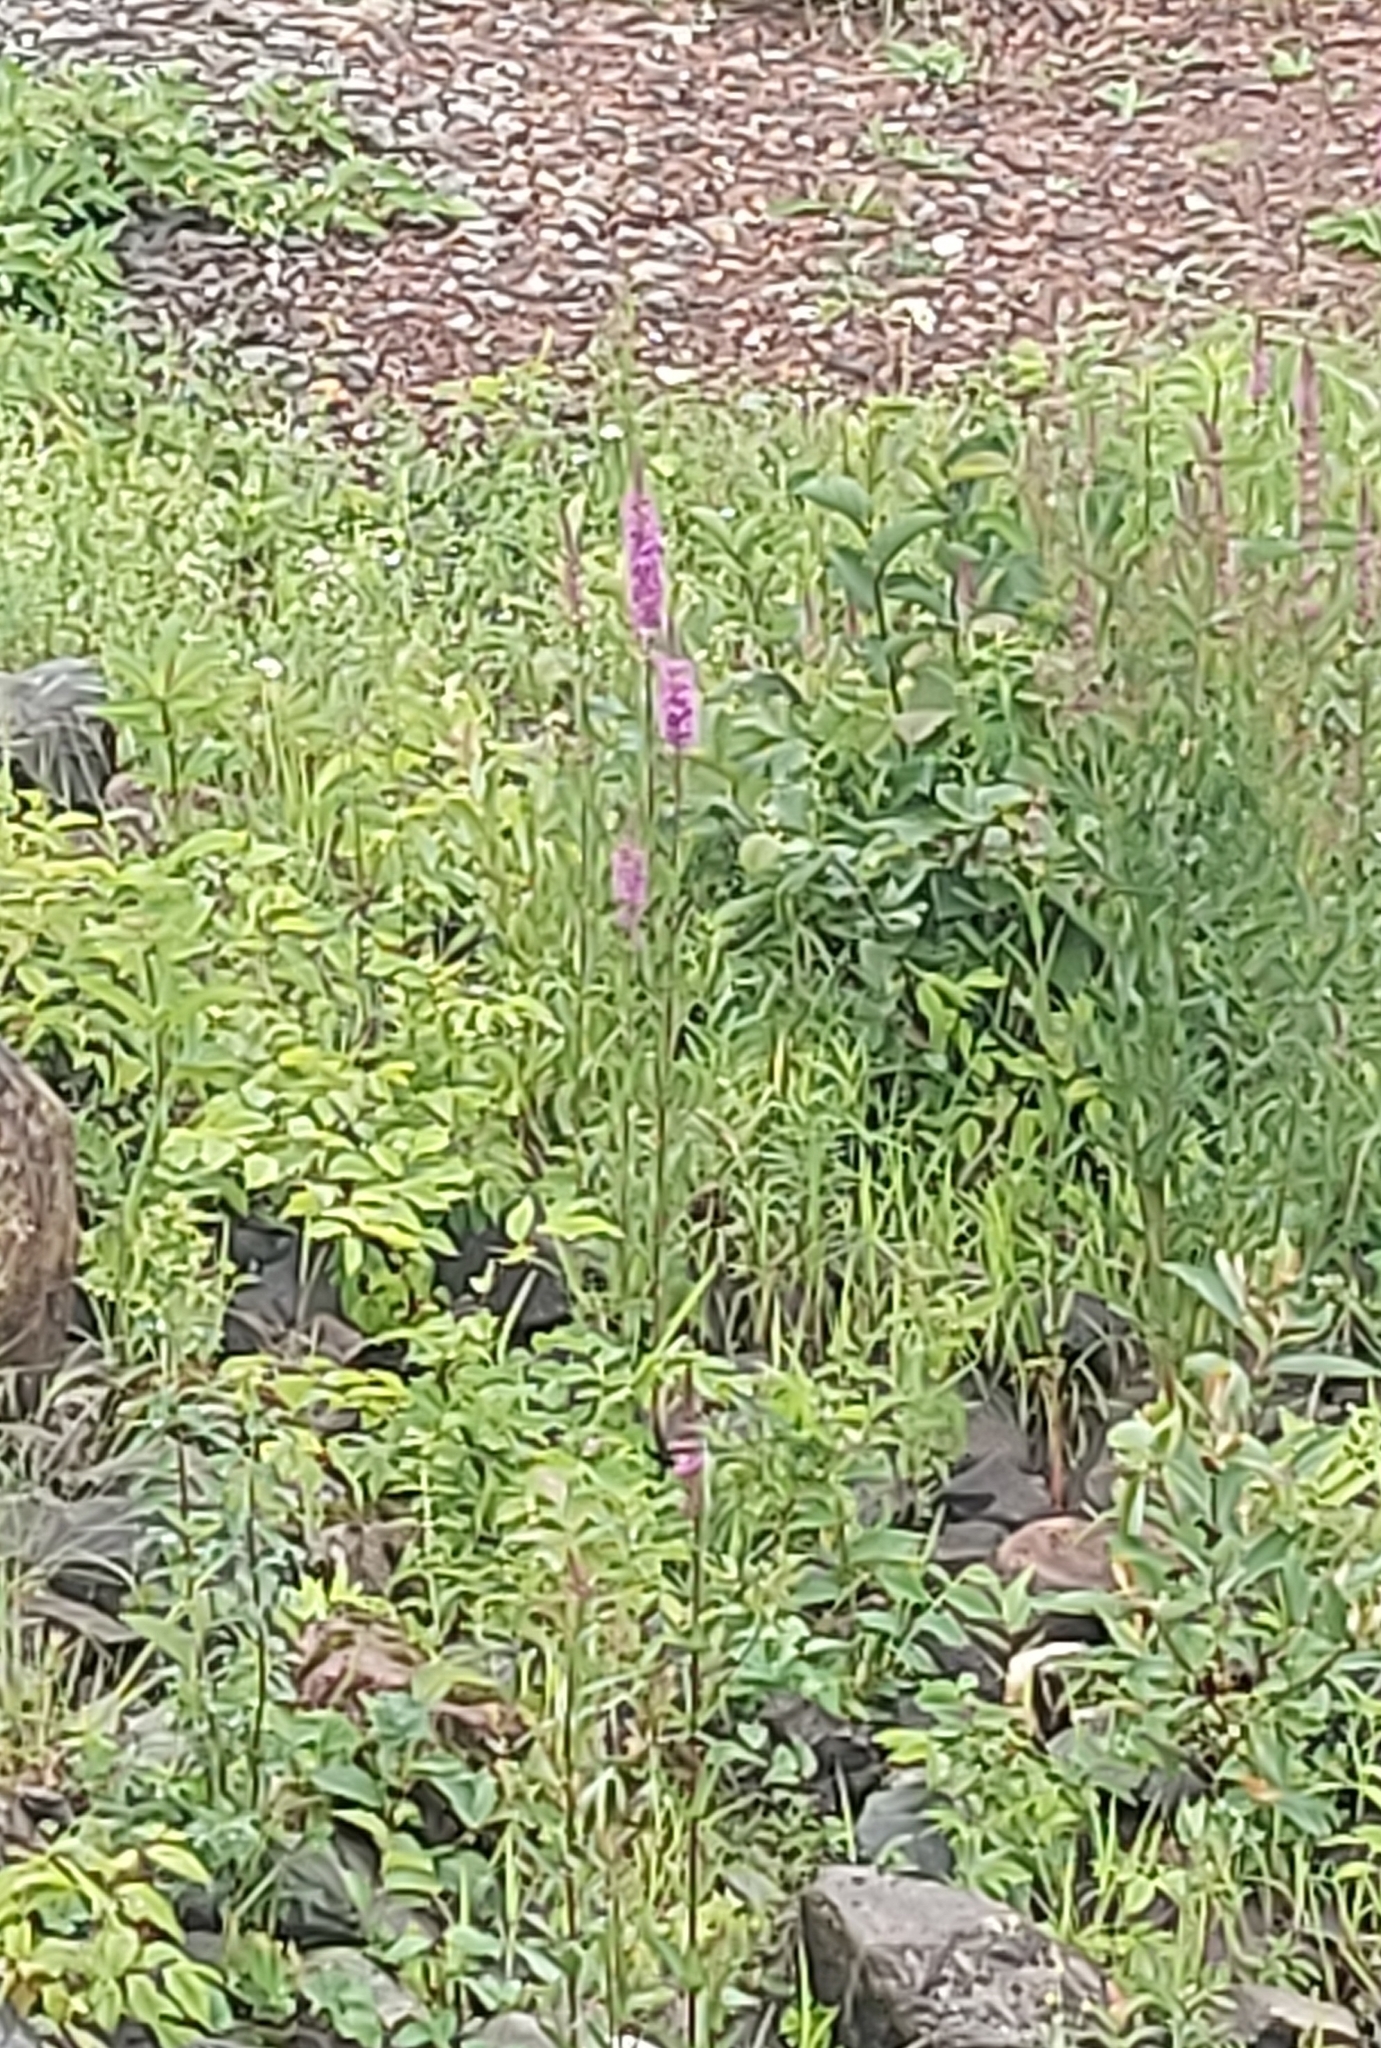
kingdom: Plantae
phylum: Tracheophyta
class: Magnoliopsida
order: Myrtales
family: Lythraceae
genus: Lythrum
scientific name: Lythrum salicaria
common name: Purple loosestrife
